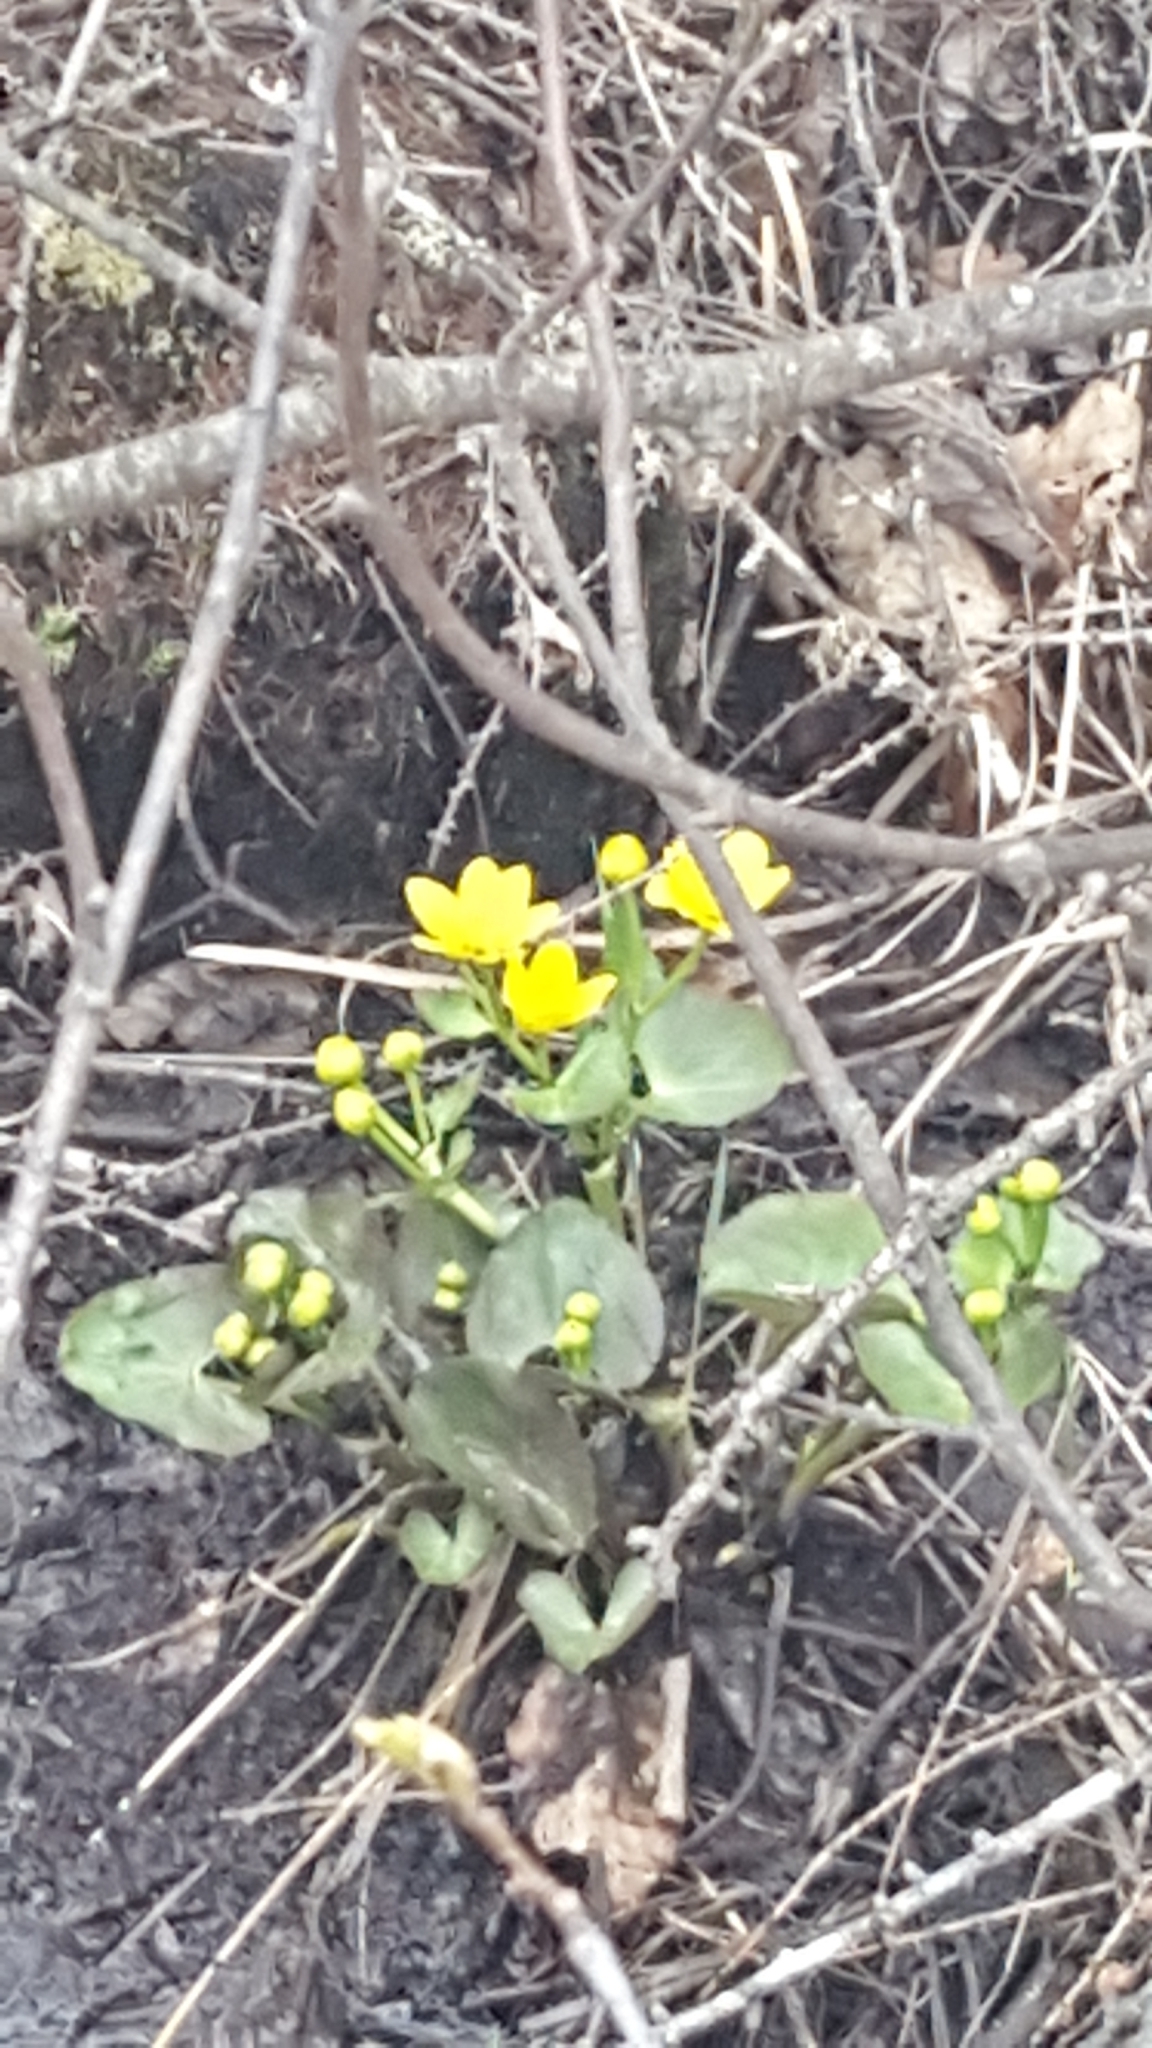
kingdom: Plantae
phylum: Tracheophyta
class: Magnoliopsida
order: Ranunculales
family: Ranunculaceae
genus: Caltha
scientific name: Caltha palustris
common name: Marsh marigold
